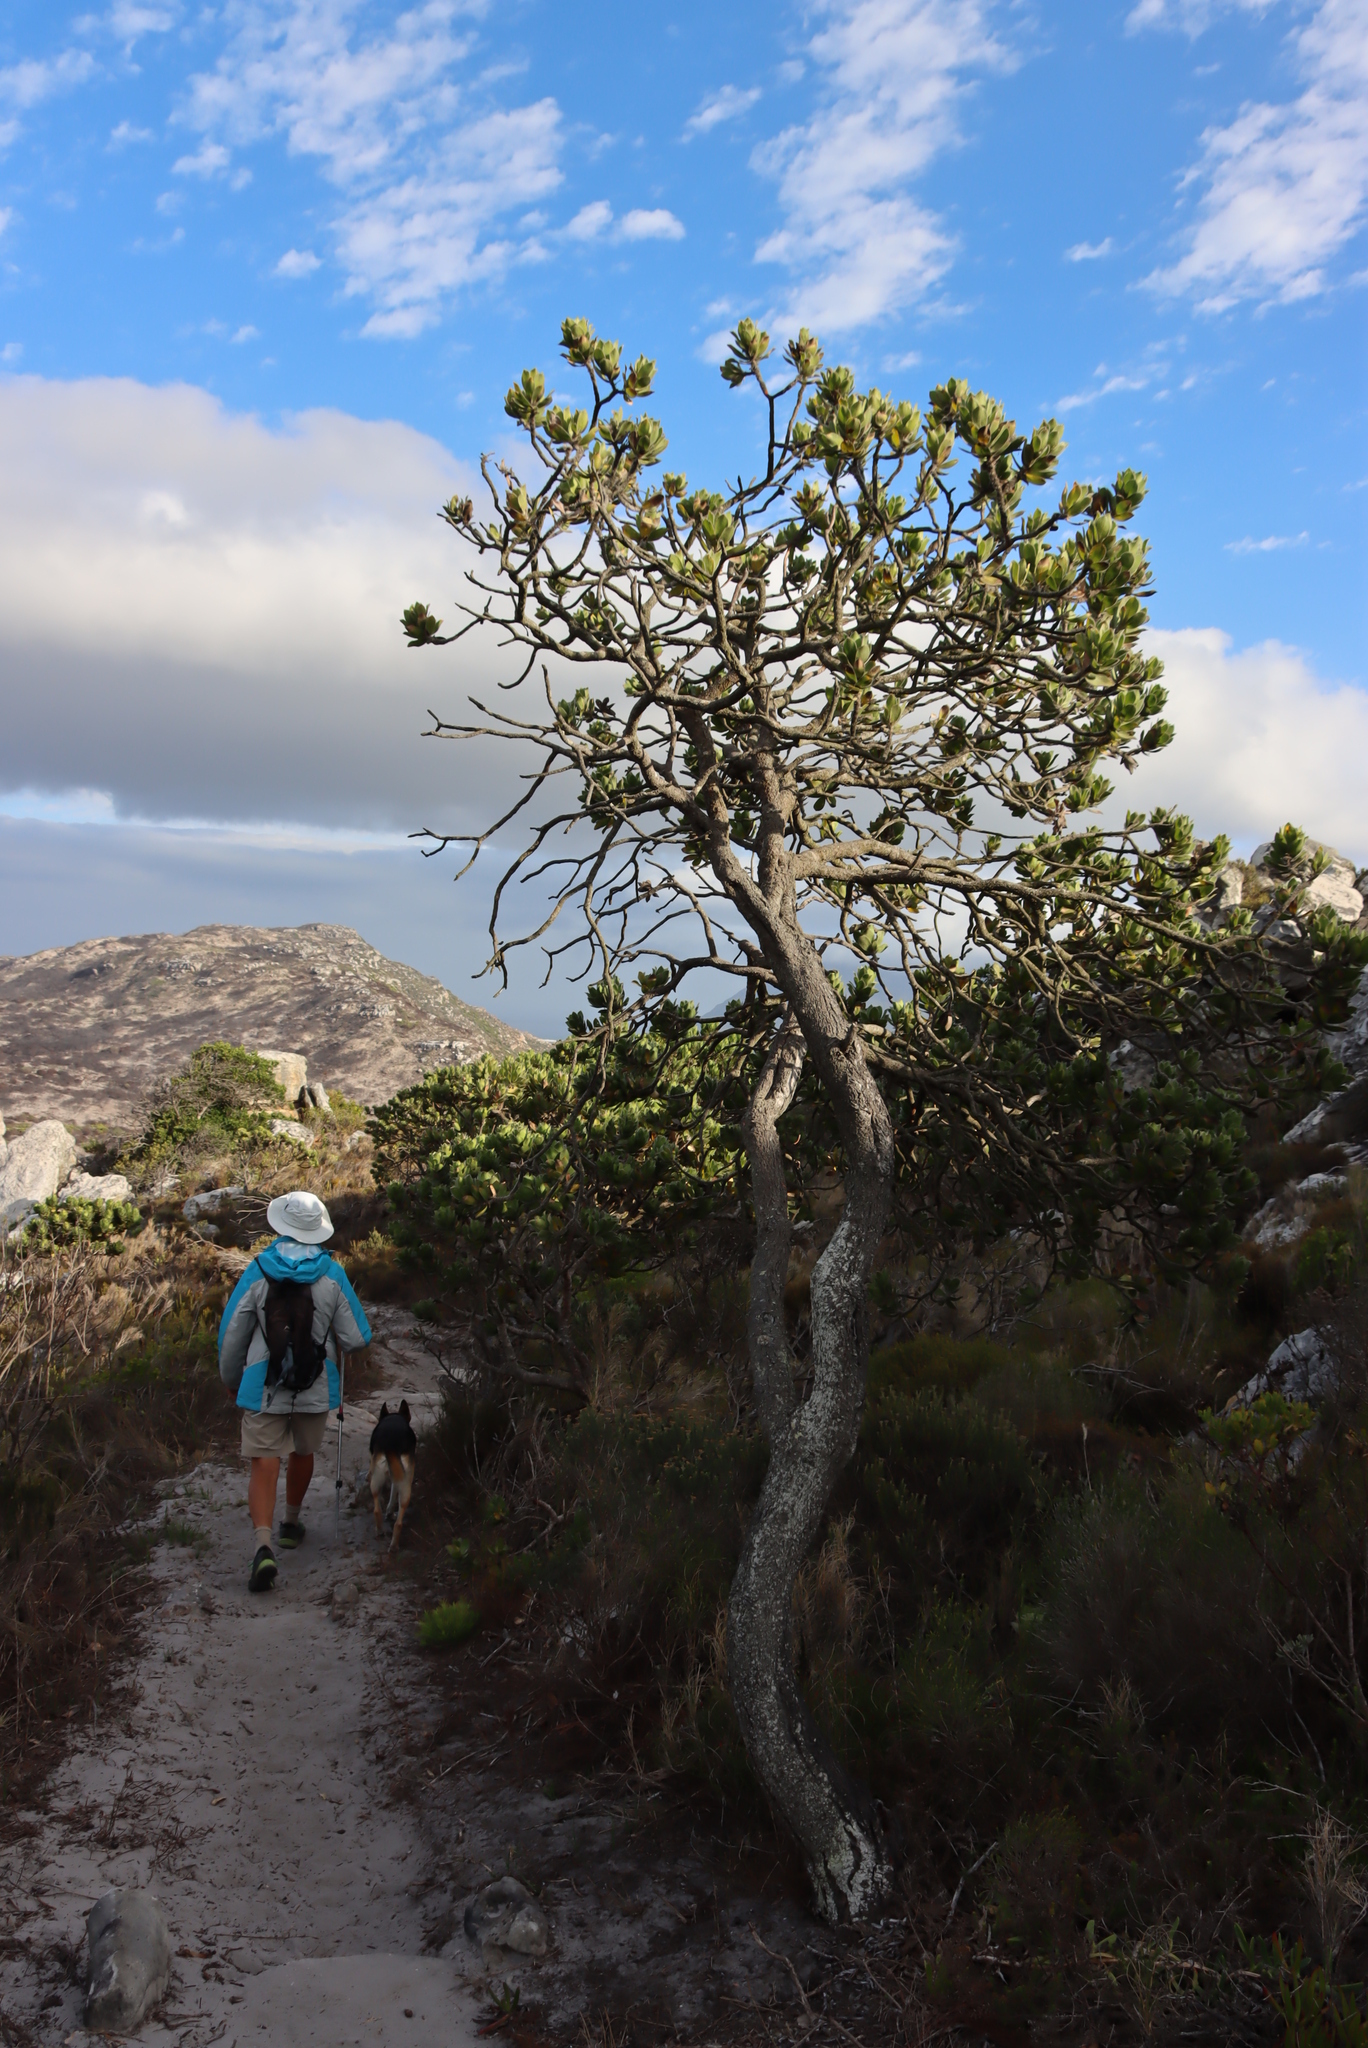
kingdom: Plantae
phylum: Tracheophyta
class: Magnoliopsida
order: Proteales
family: Proteaceae
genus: Leucospermum
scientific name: Leucospermum conocarpodendron
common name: Tree pincushion
